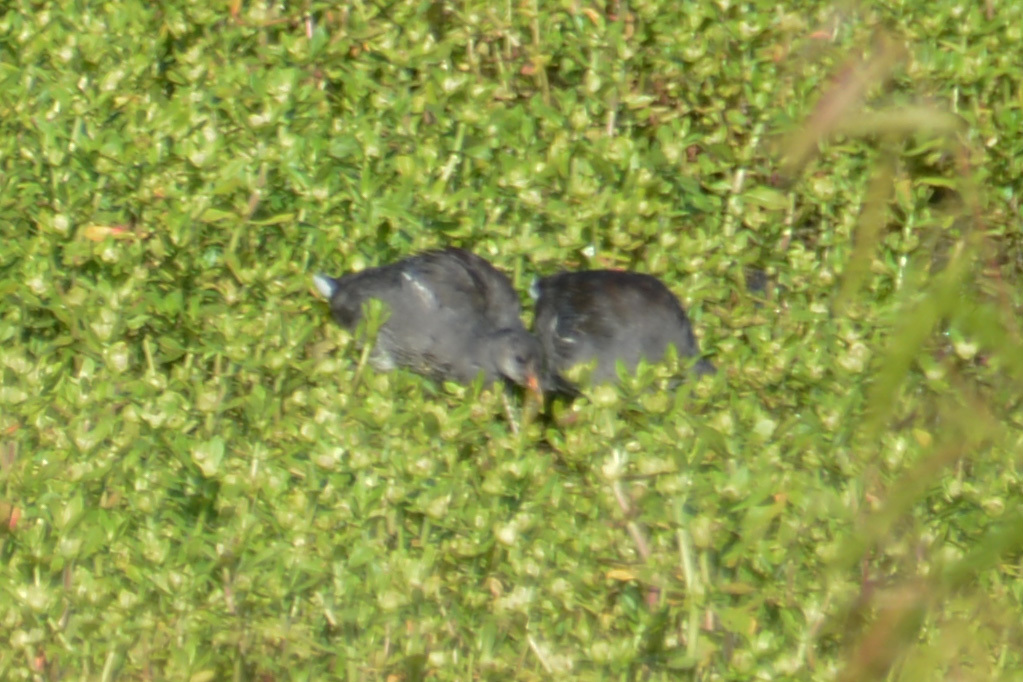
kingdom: Animalia
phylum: Chordata
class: Aves
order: Gruiformes
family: Rallidae
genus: Gallinula
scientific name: Gallinula chloropus
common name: Common moorhen
